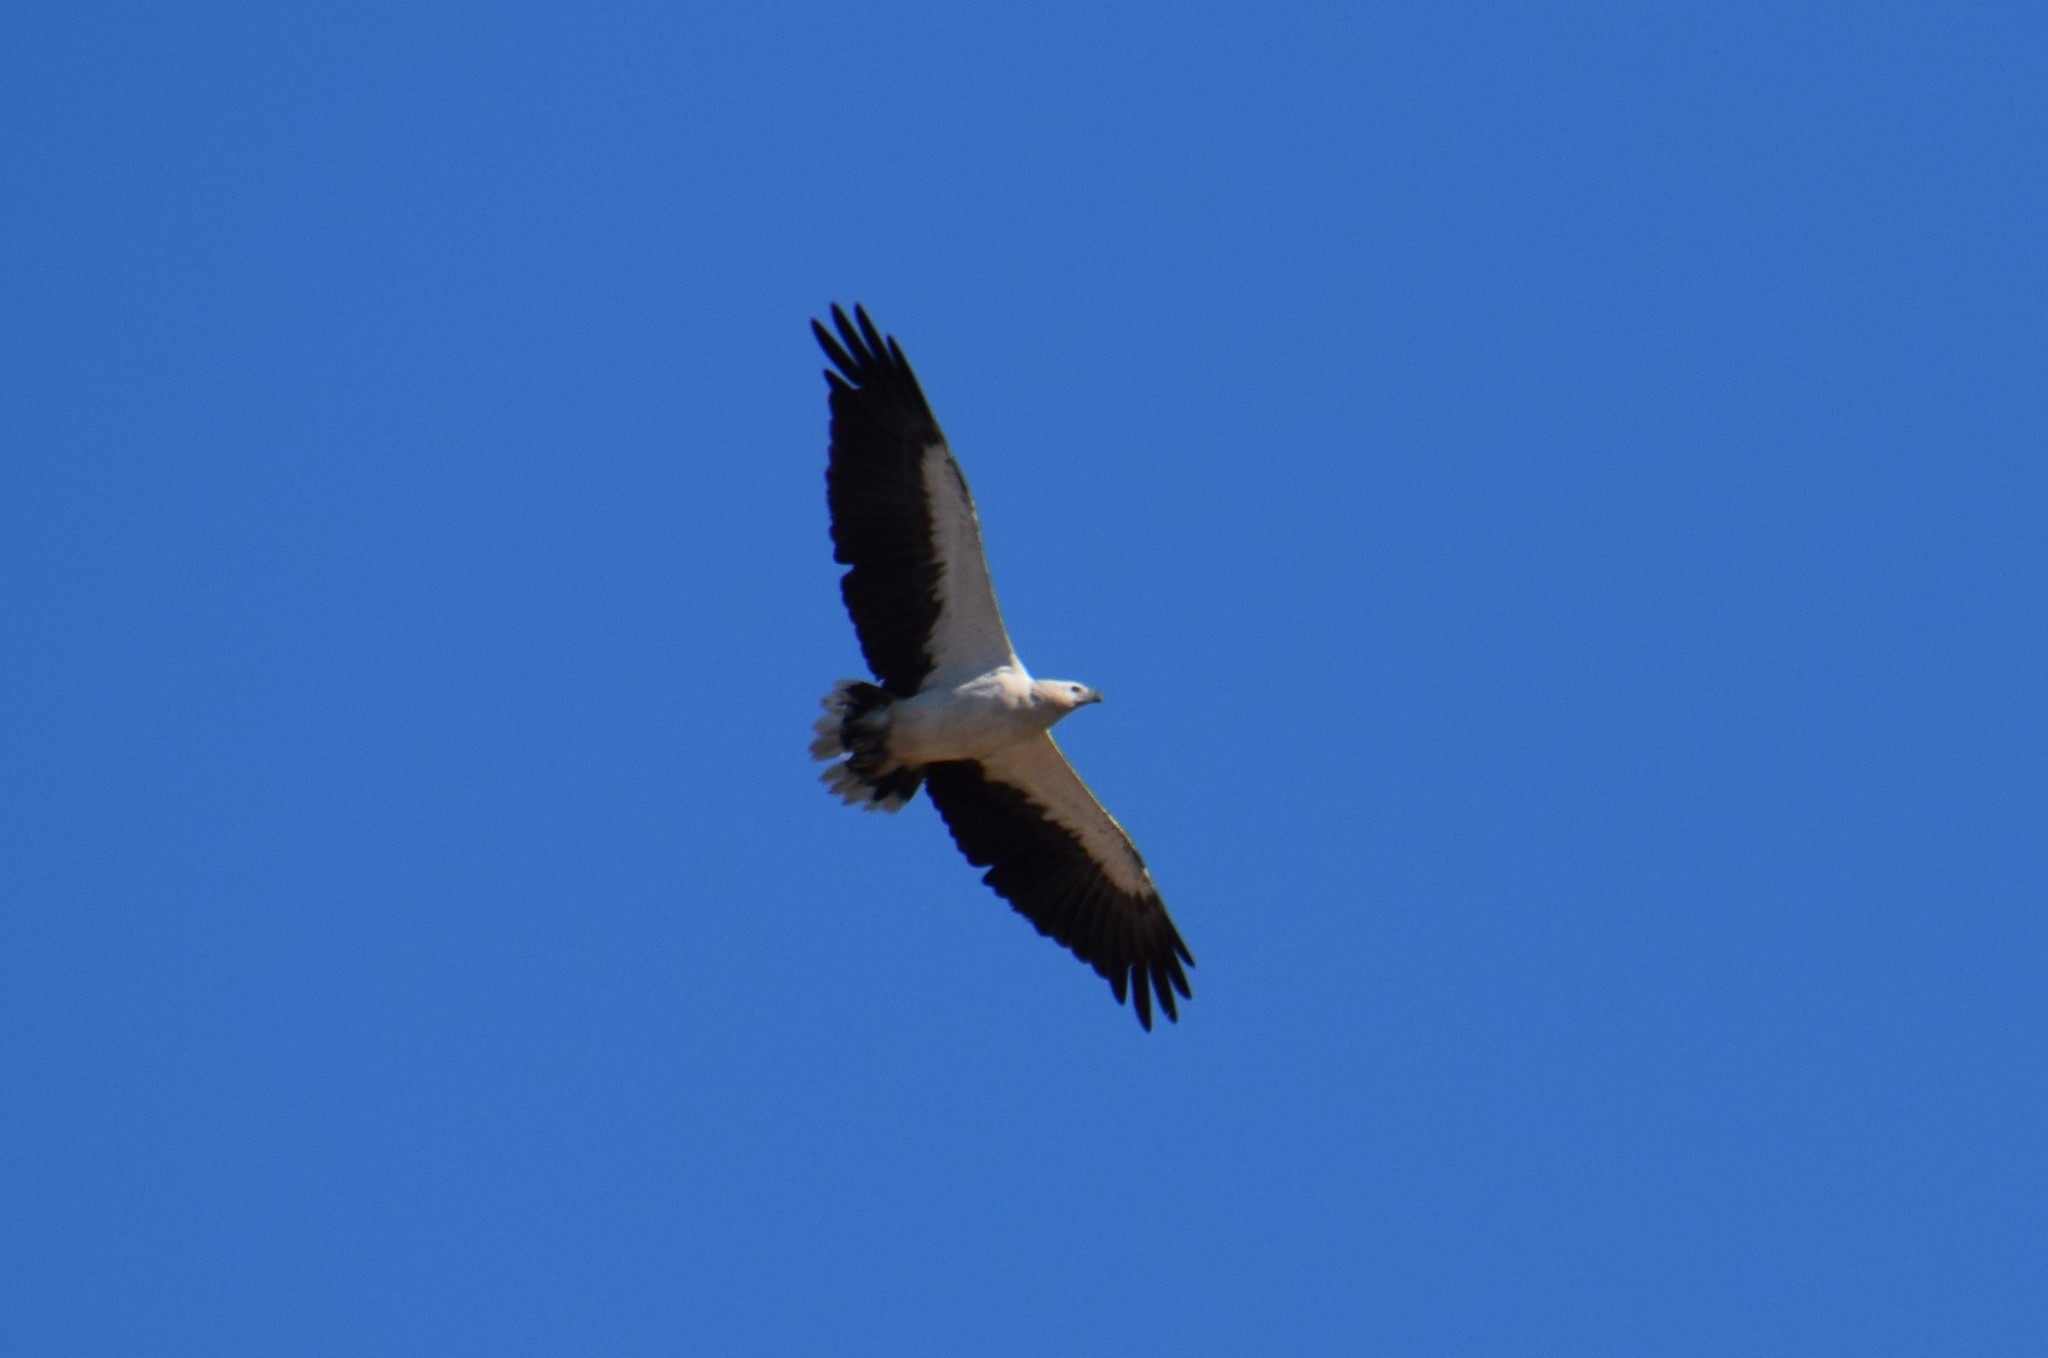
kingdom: Animalia
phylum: Chordata
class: Aves
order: Accipitriformes
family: Accipitridae
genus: Haliaeetus
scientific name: Haliaeetus leucogaster
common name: White-bellied sea eagle
